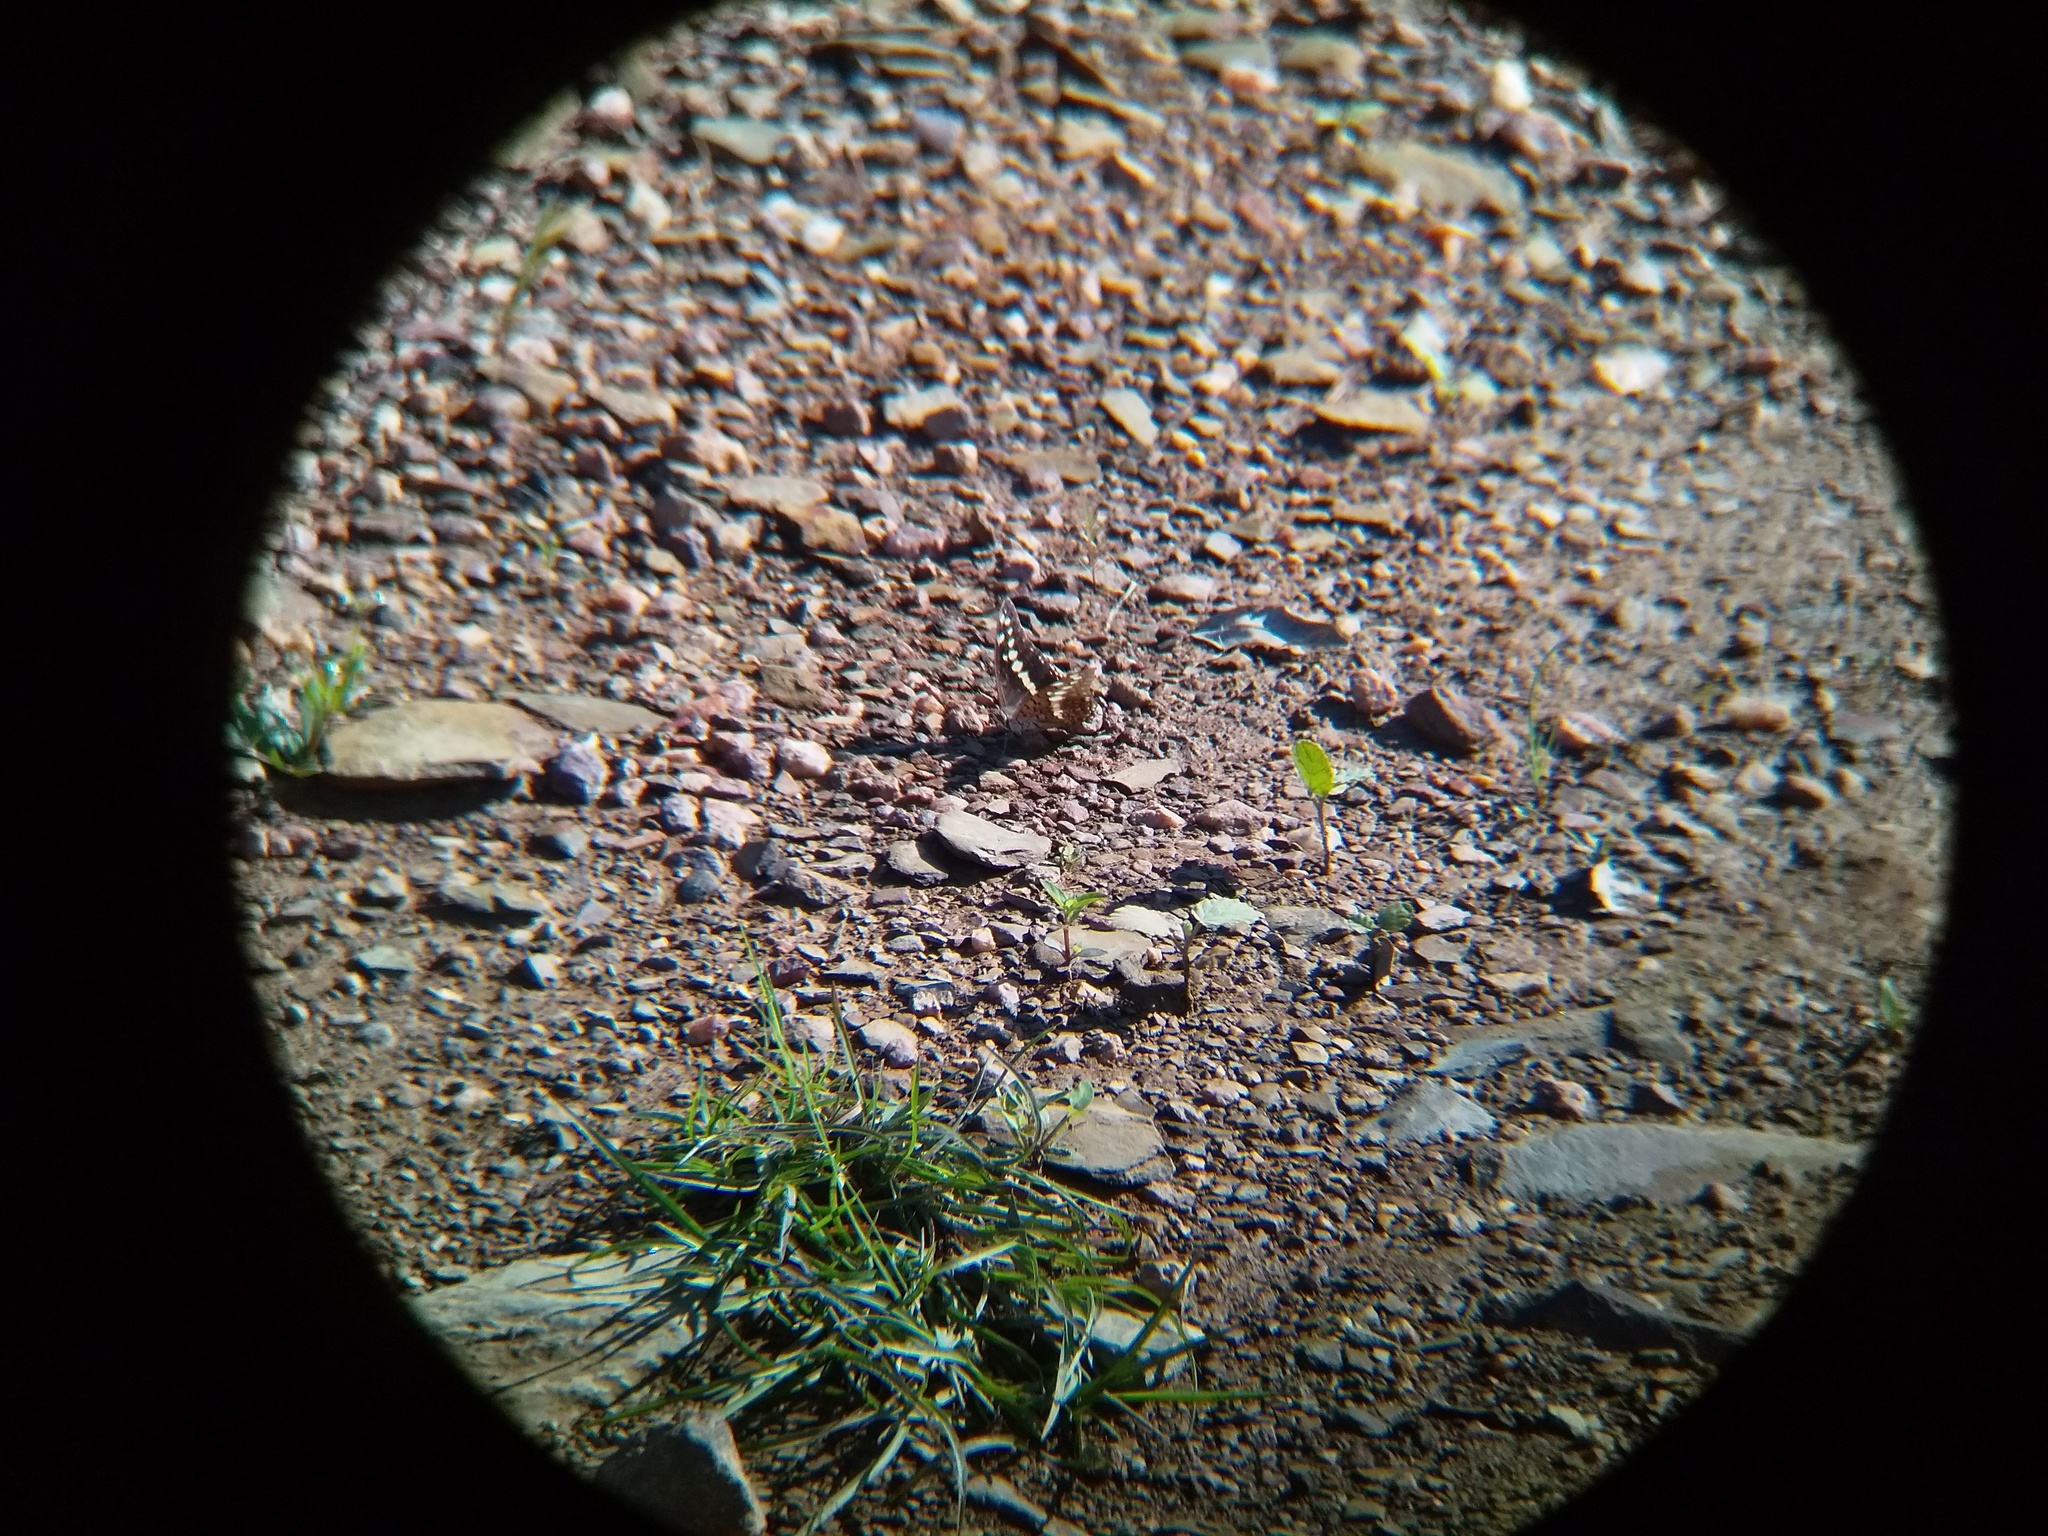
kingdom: Animalia
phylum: Arthropoda
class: Insecta
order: Lepidoptera
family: Nymphalidae
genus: Charaxes
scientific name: Charaxes solon
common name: Black rajah
